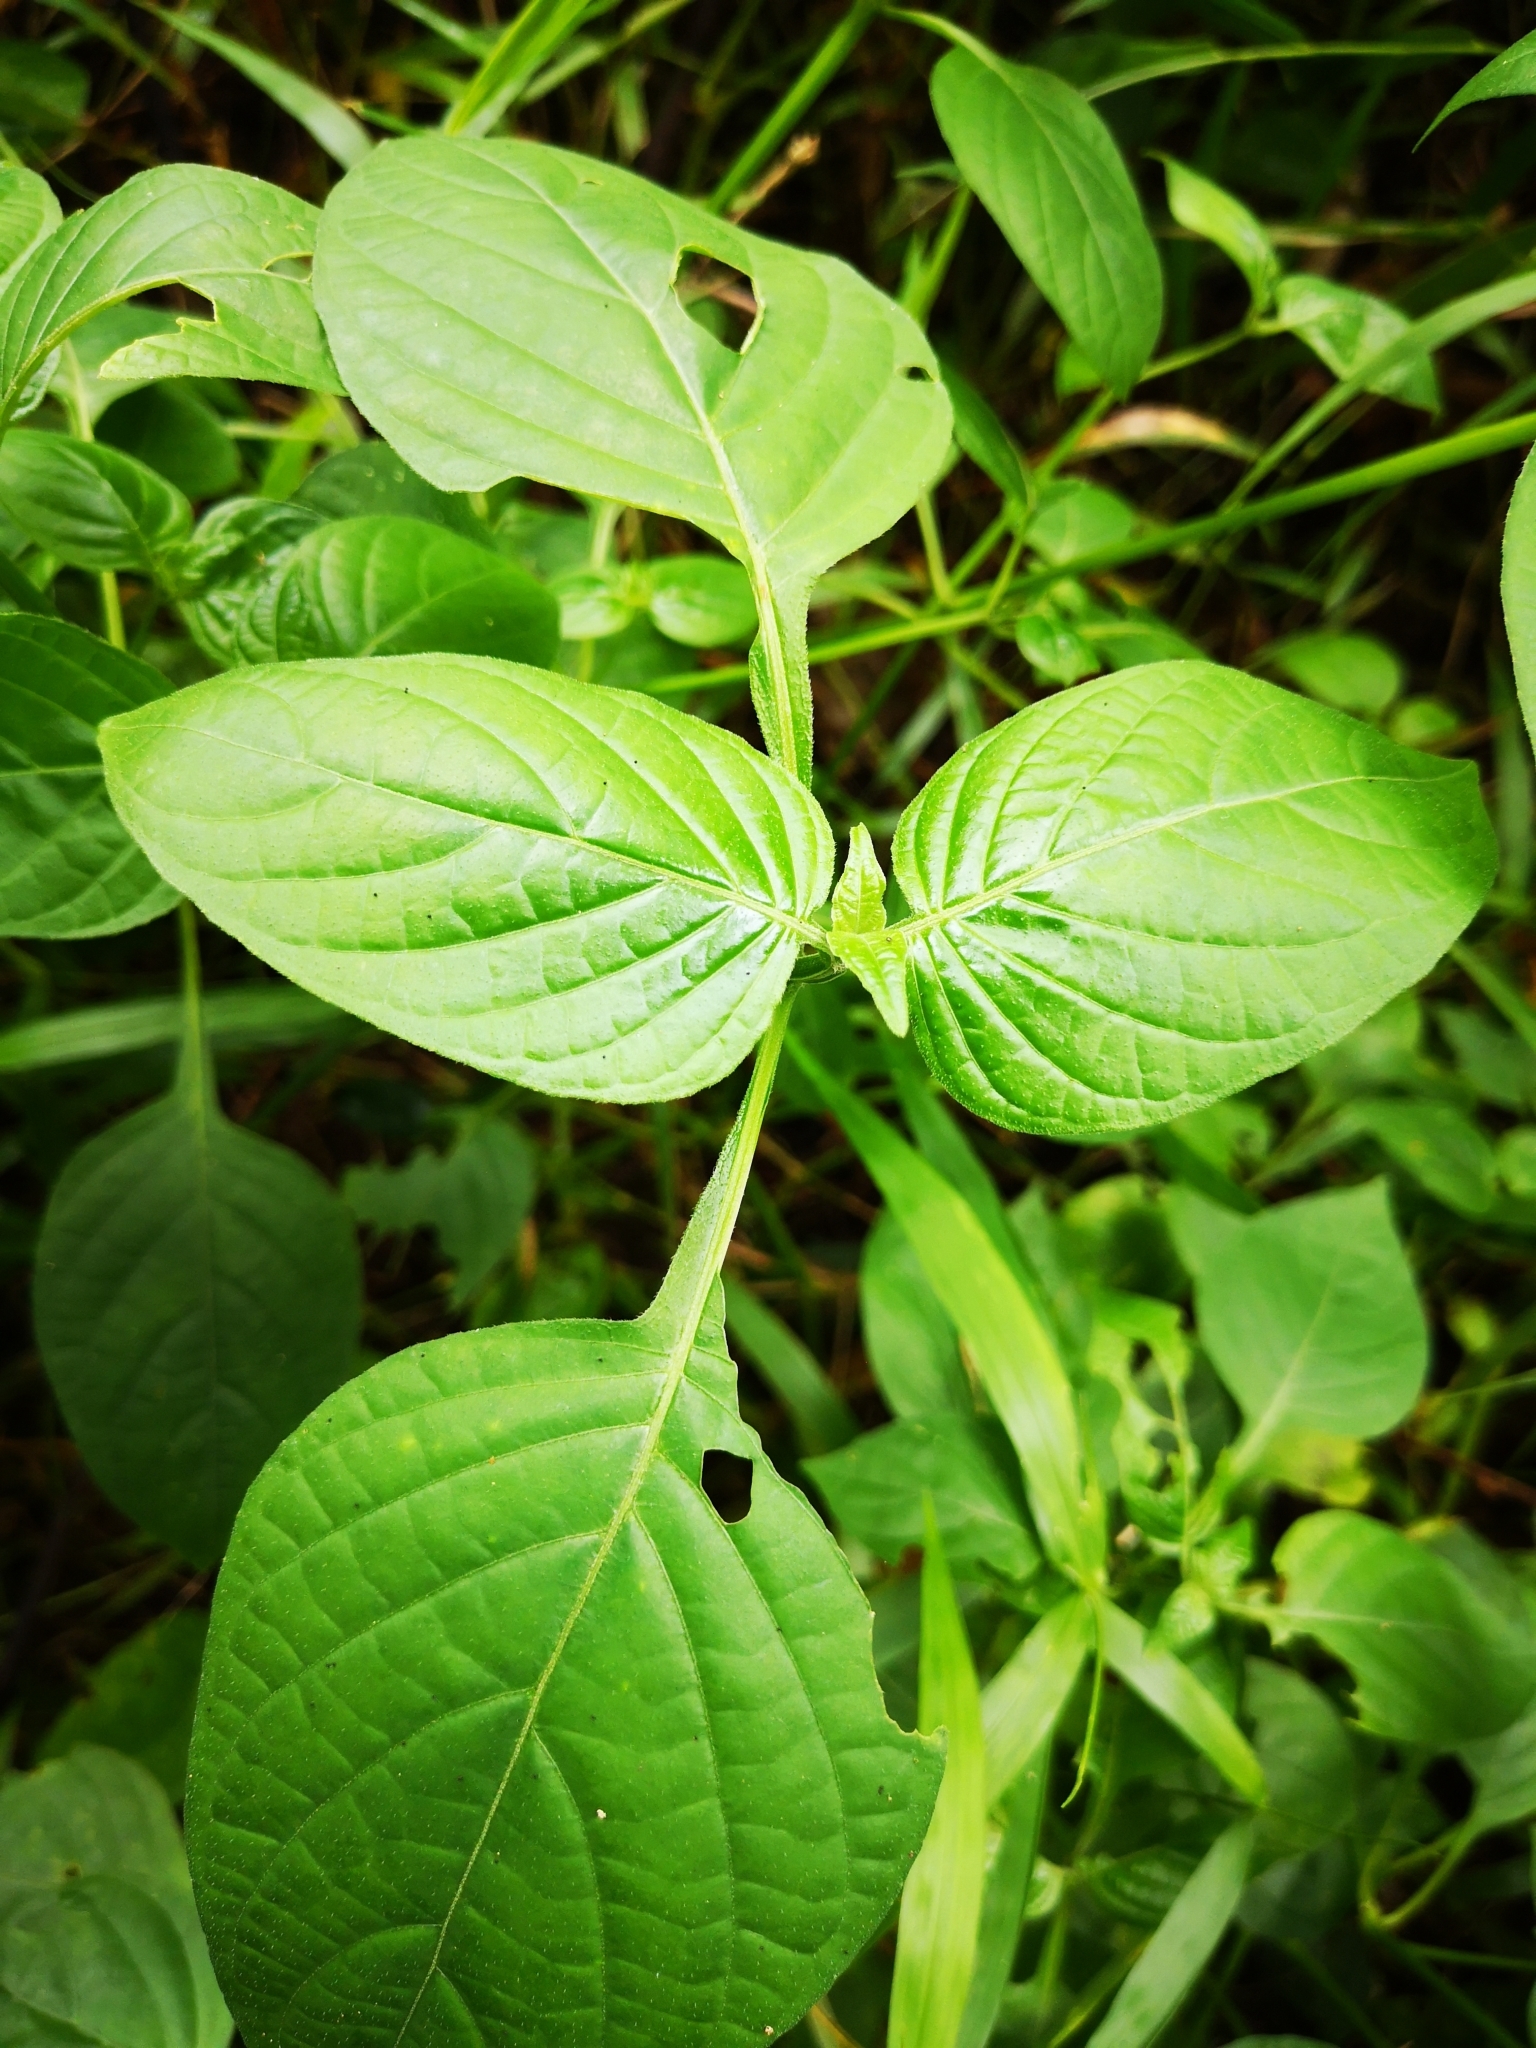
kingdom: Plantae
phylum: Tracheophyta
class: Magnoliopsida
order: Lamiales
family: Acanthaceae
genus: Asystasia
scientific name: Asystasia intrusa
